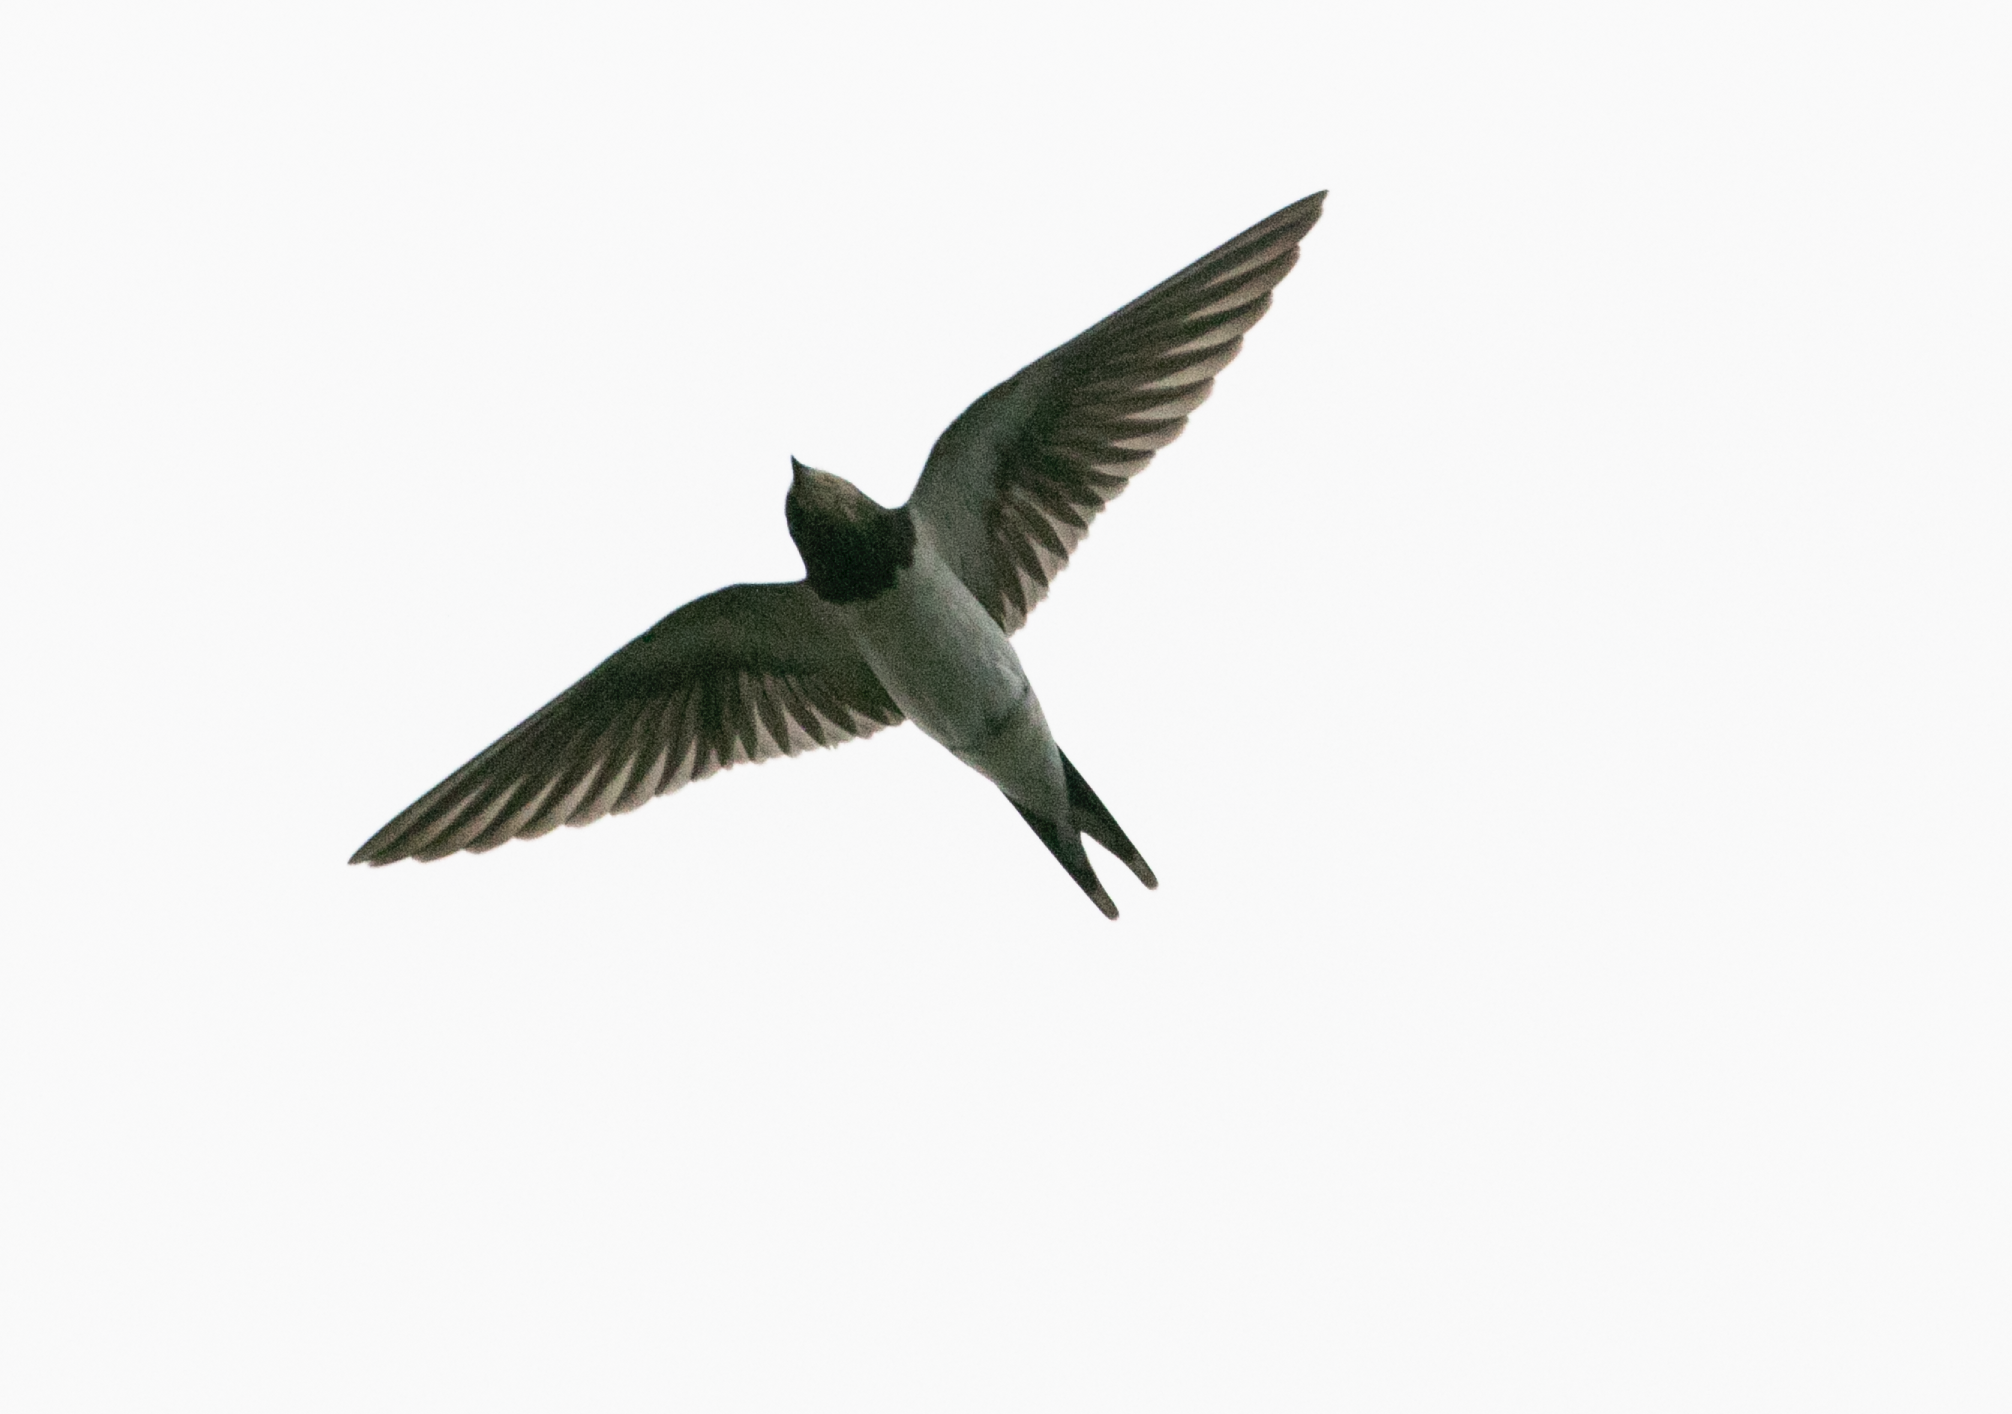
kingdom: Animalia
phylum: Chordata
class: Aves
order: Passeriformes
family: Hirundinidae
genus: Hirundo
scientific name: Hirundo rustica
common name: Barn swallow
